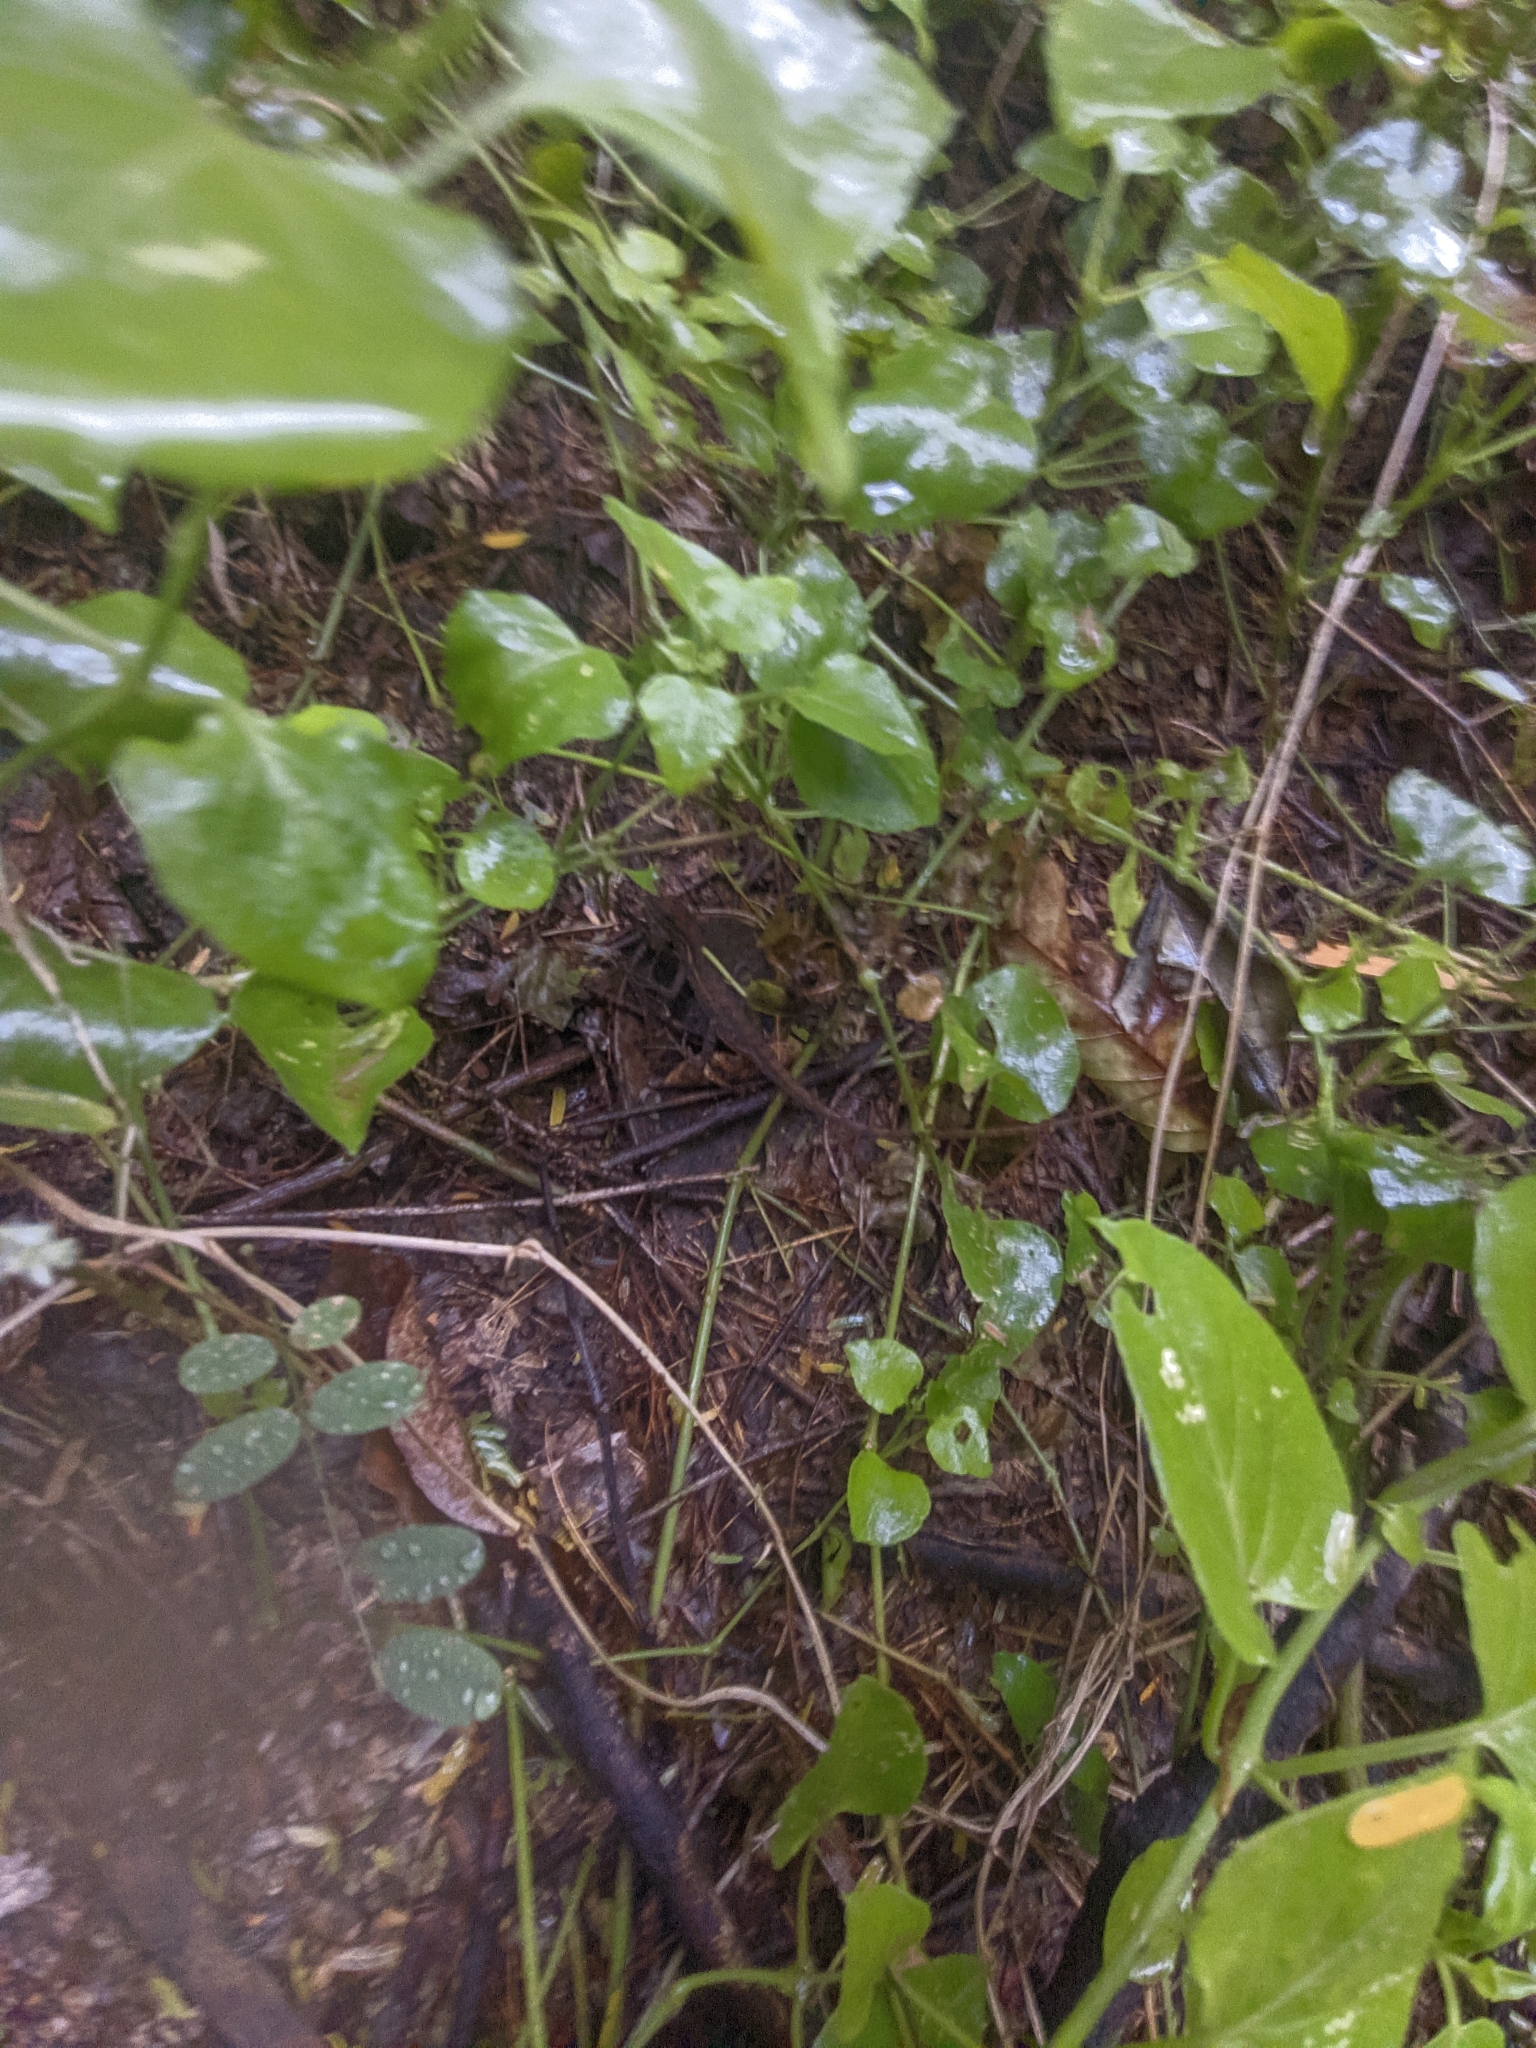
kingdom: Animalia
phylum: Chordata
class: Squamata
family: Dactyloidae
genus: Anolis
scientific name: Anolis auratus
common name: Grass anole
